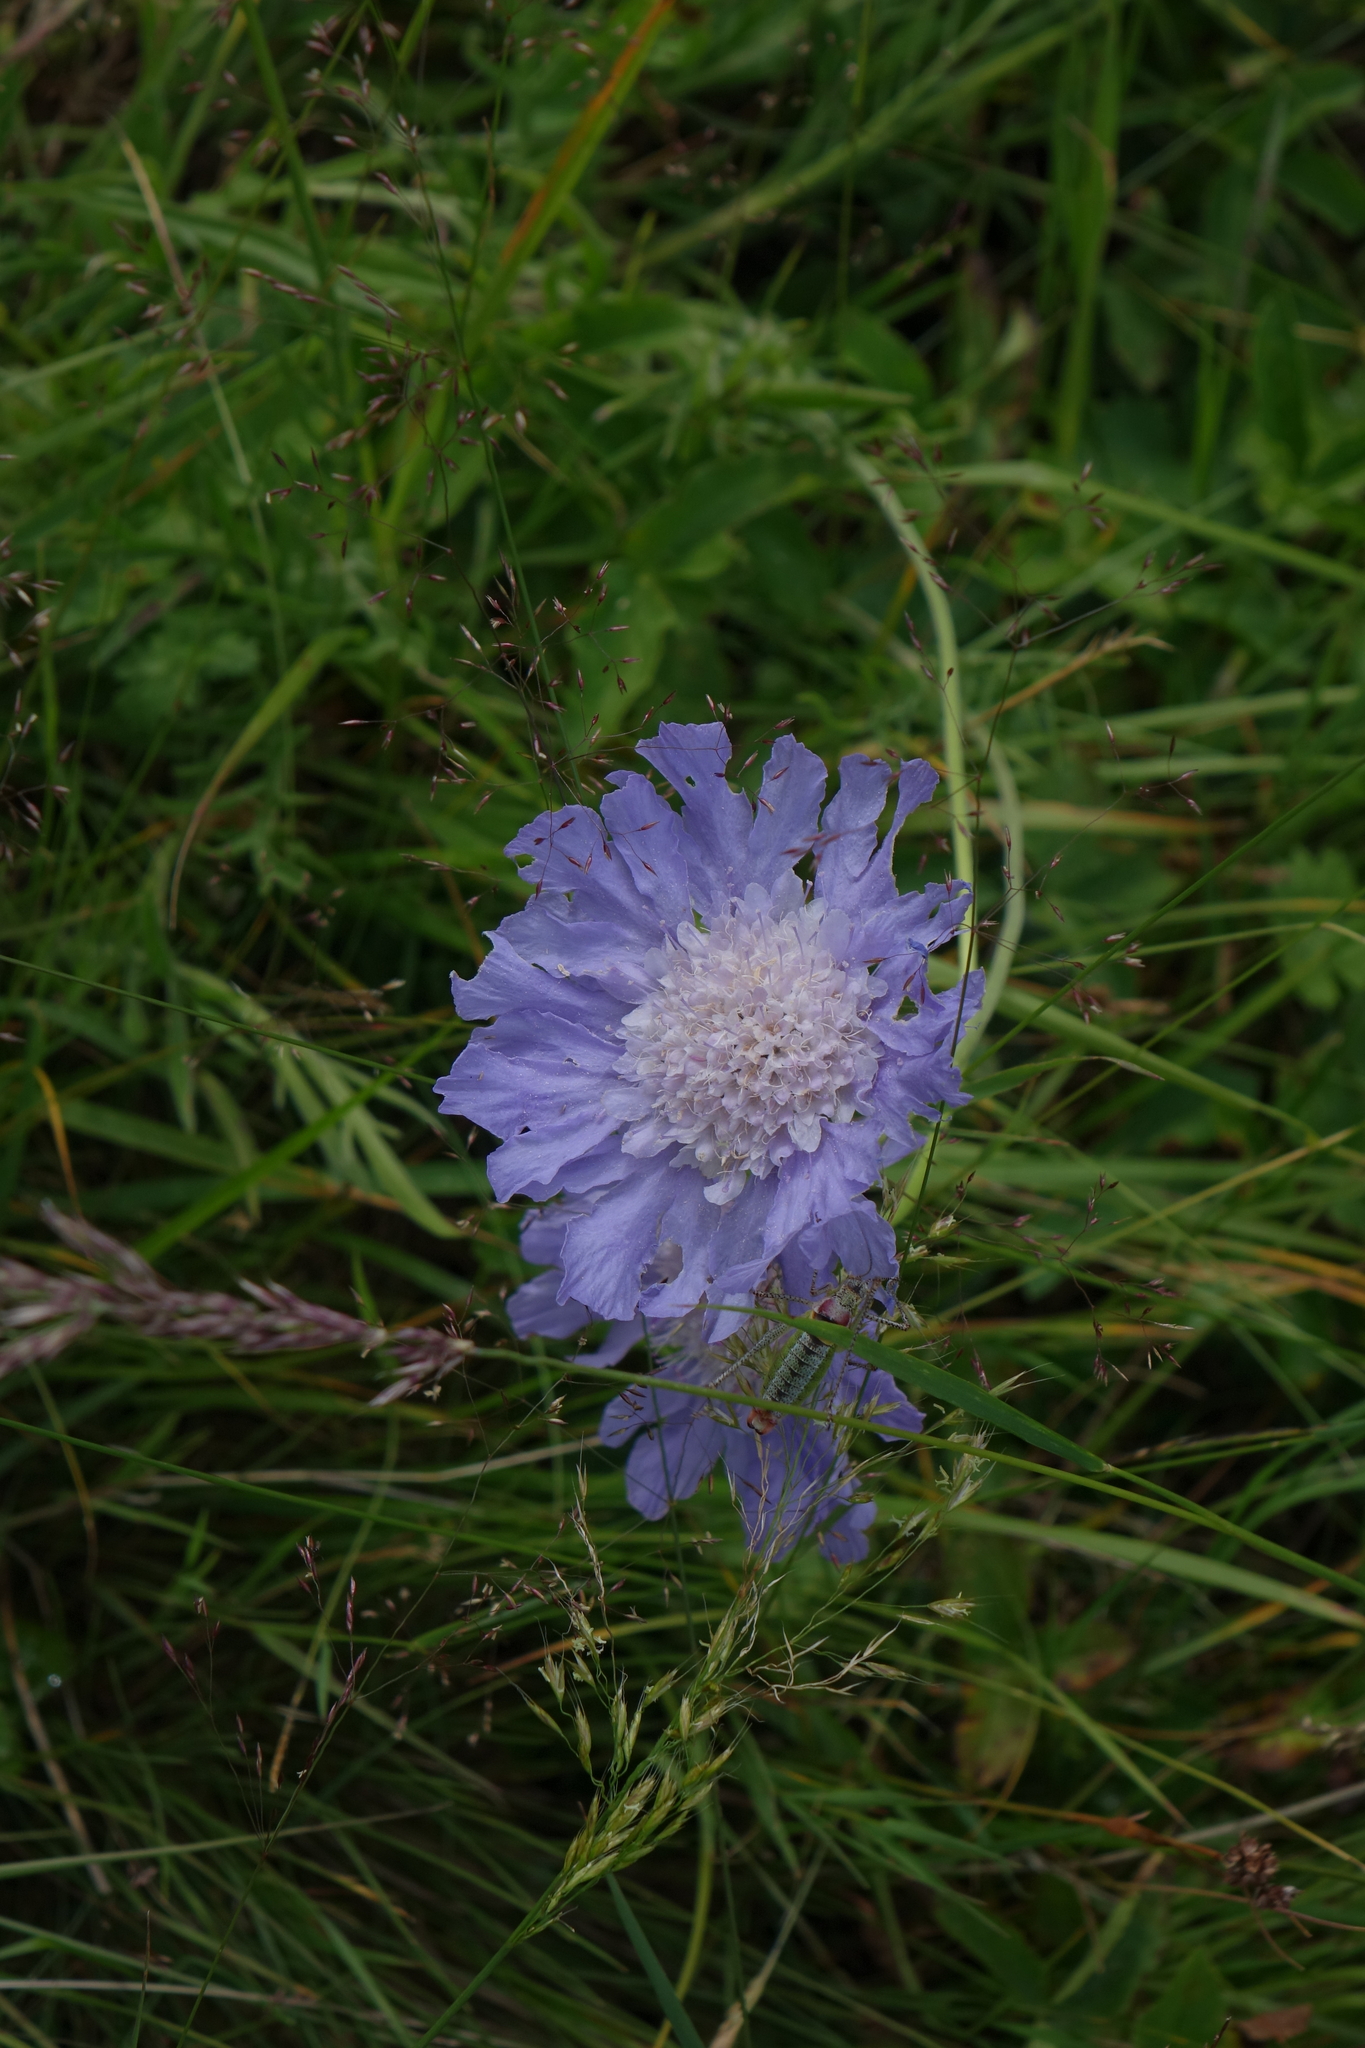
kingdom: Plantae
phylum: Tracheophyta
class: Magnoliopsida
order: Dipsacales
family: Caprifoliaceae
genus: Lomelosia
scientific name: Lomelosia caucasica
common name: Pincushion-flower
